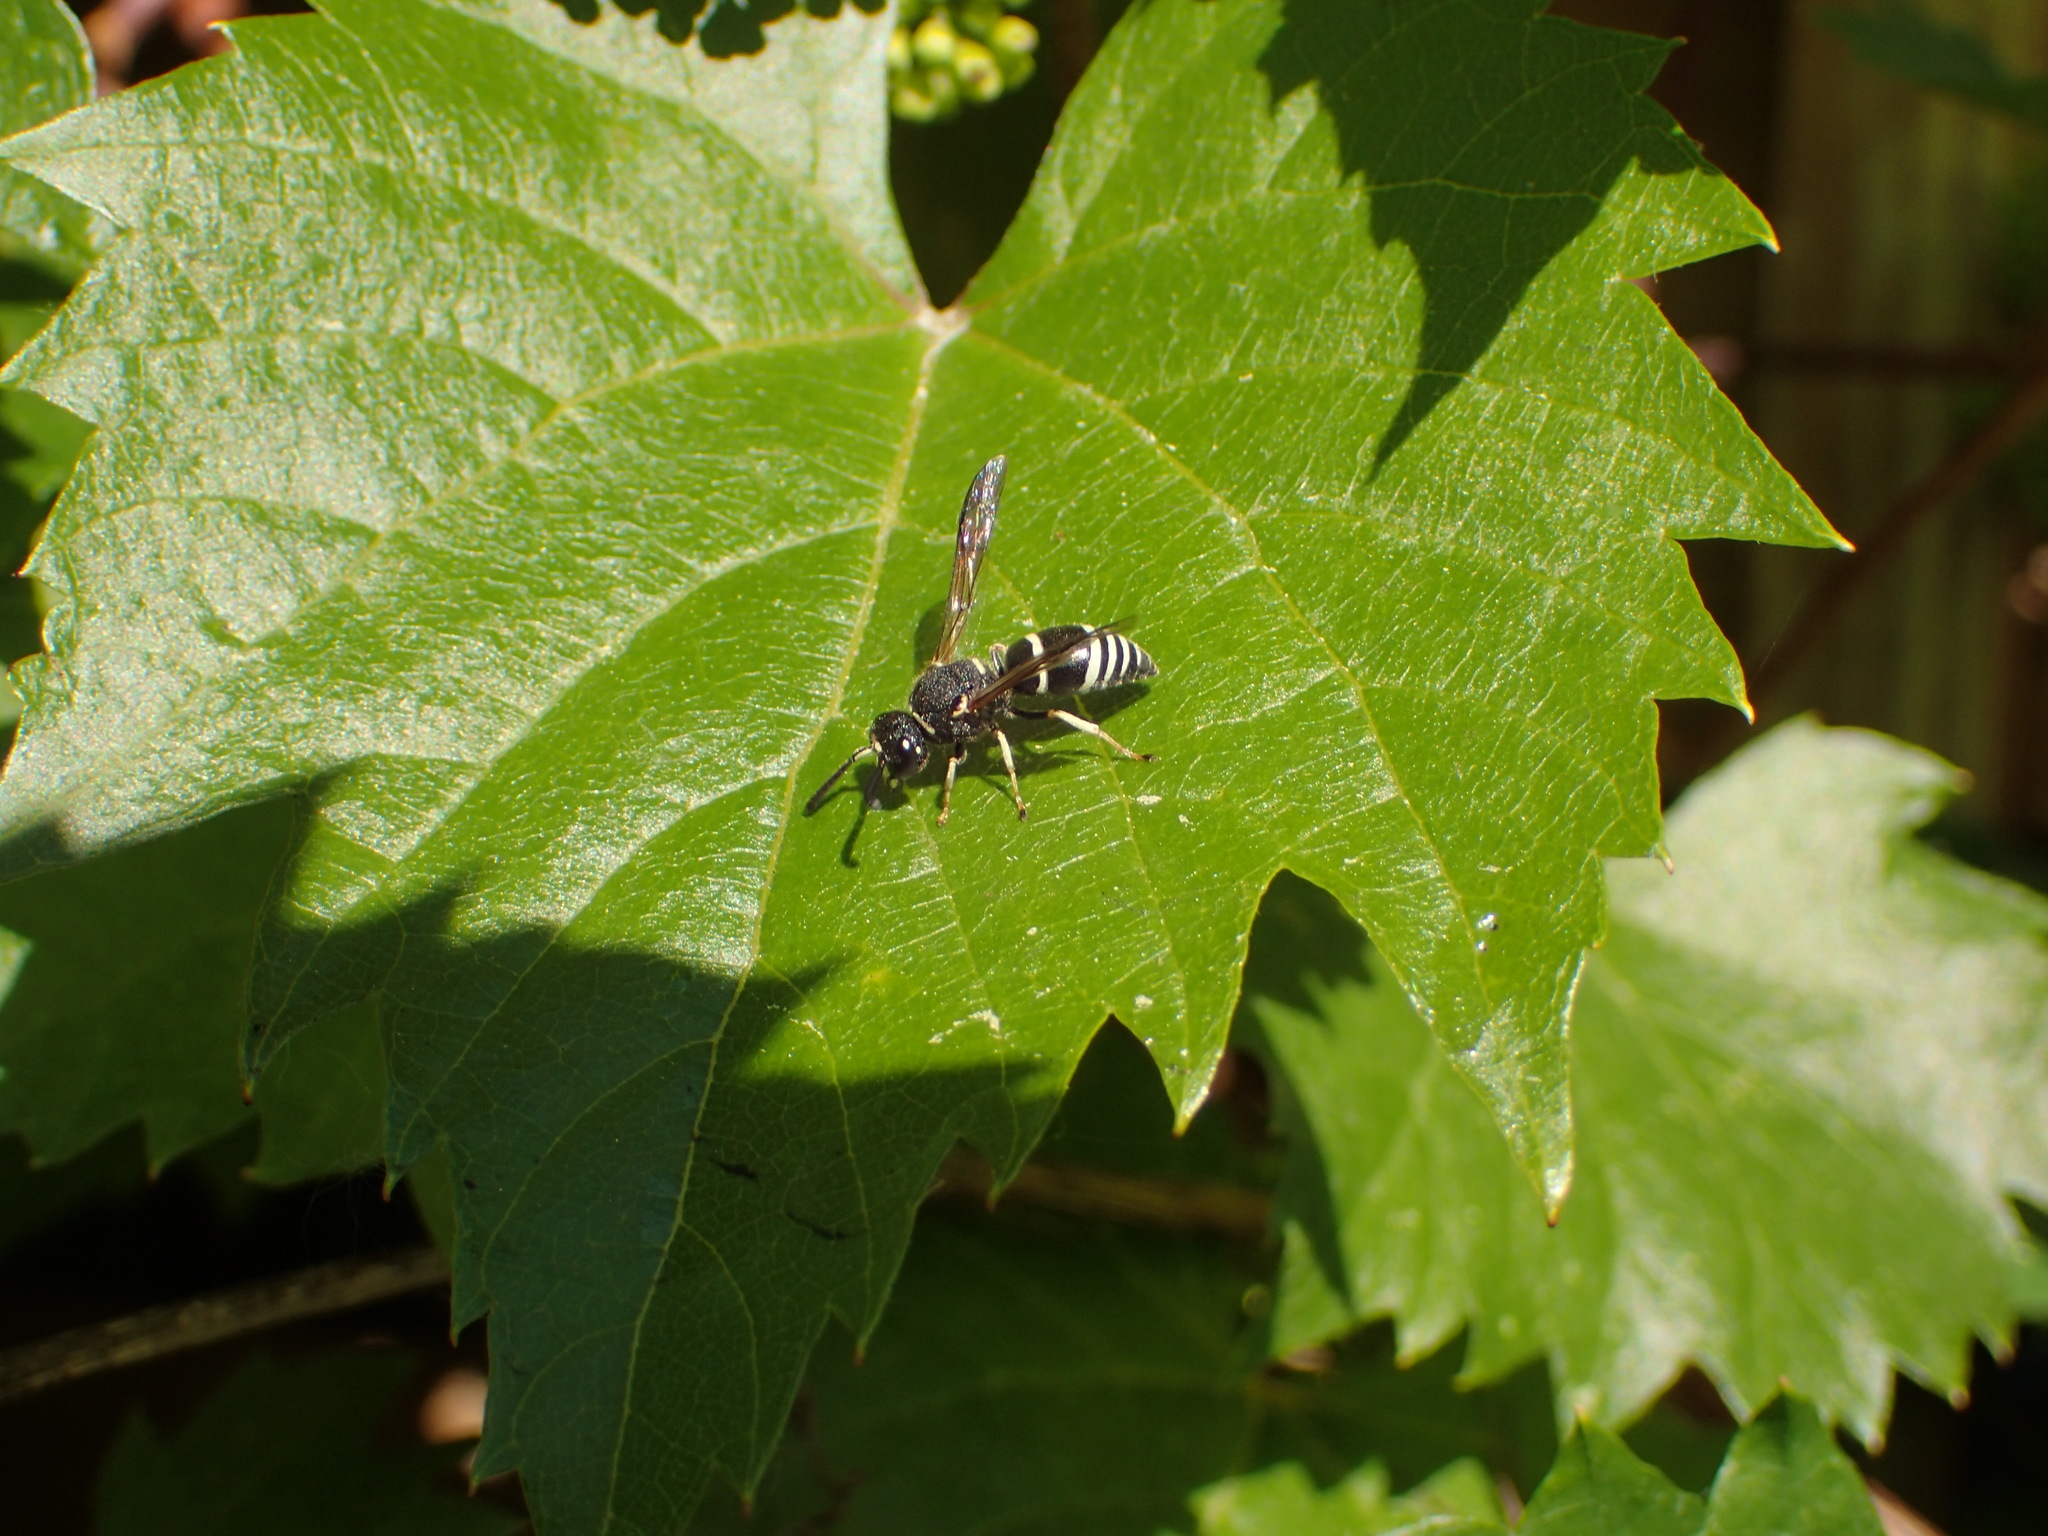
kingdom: Animalia
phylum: Arthropoda
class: Insecta
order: Hymenoptera
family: Eumenidae
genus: Euodynerus
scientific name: Euodynerus leucomelas
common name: Wasp
